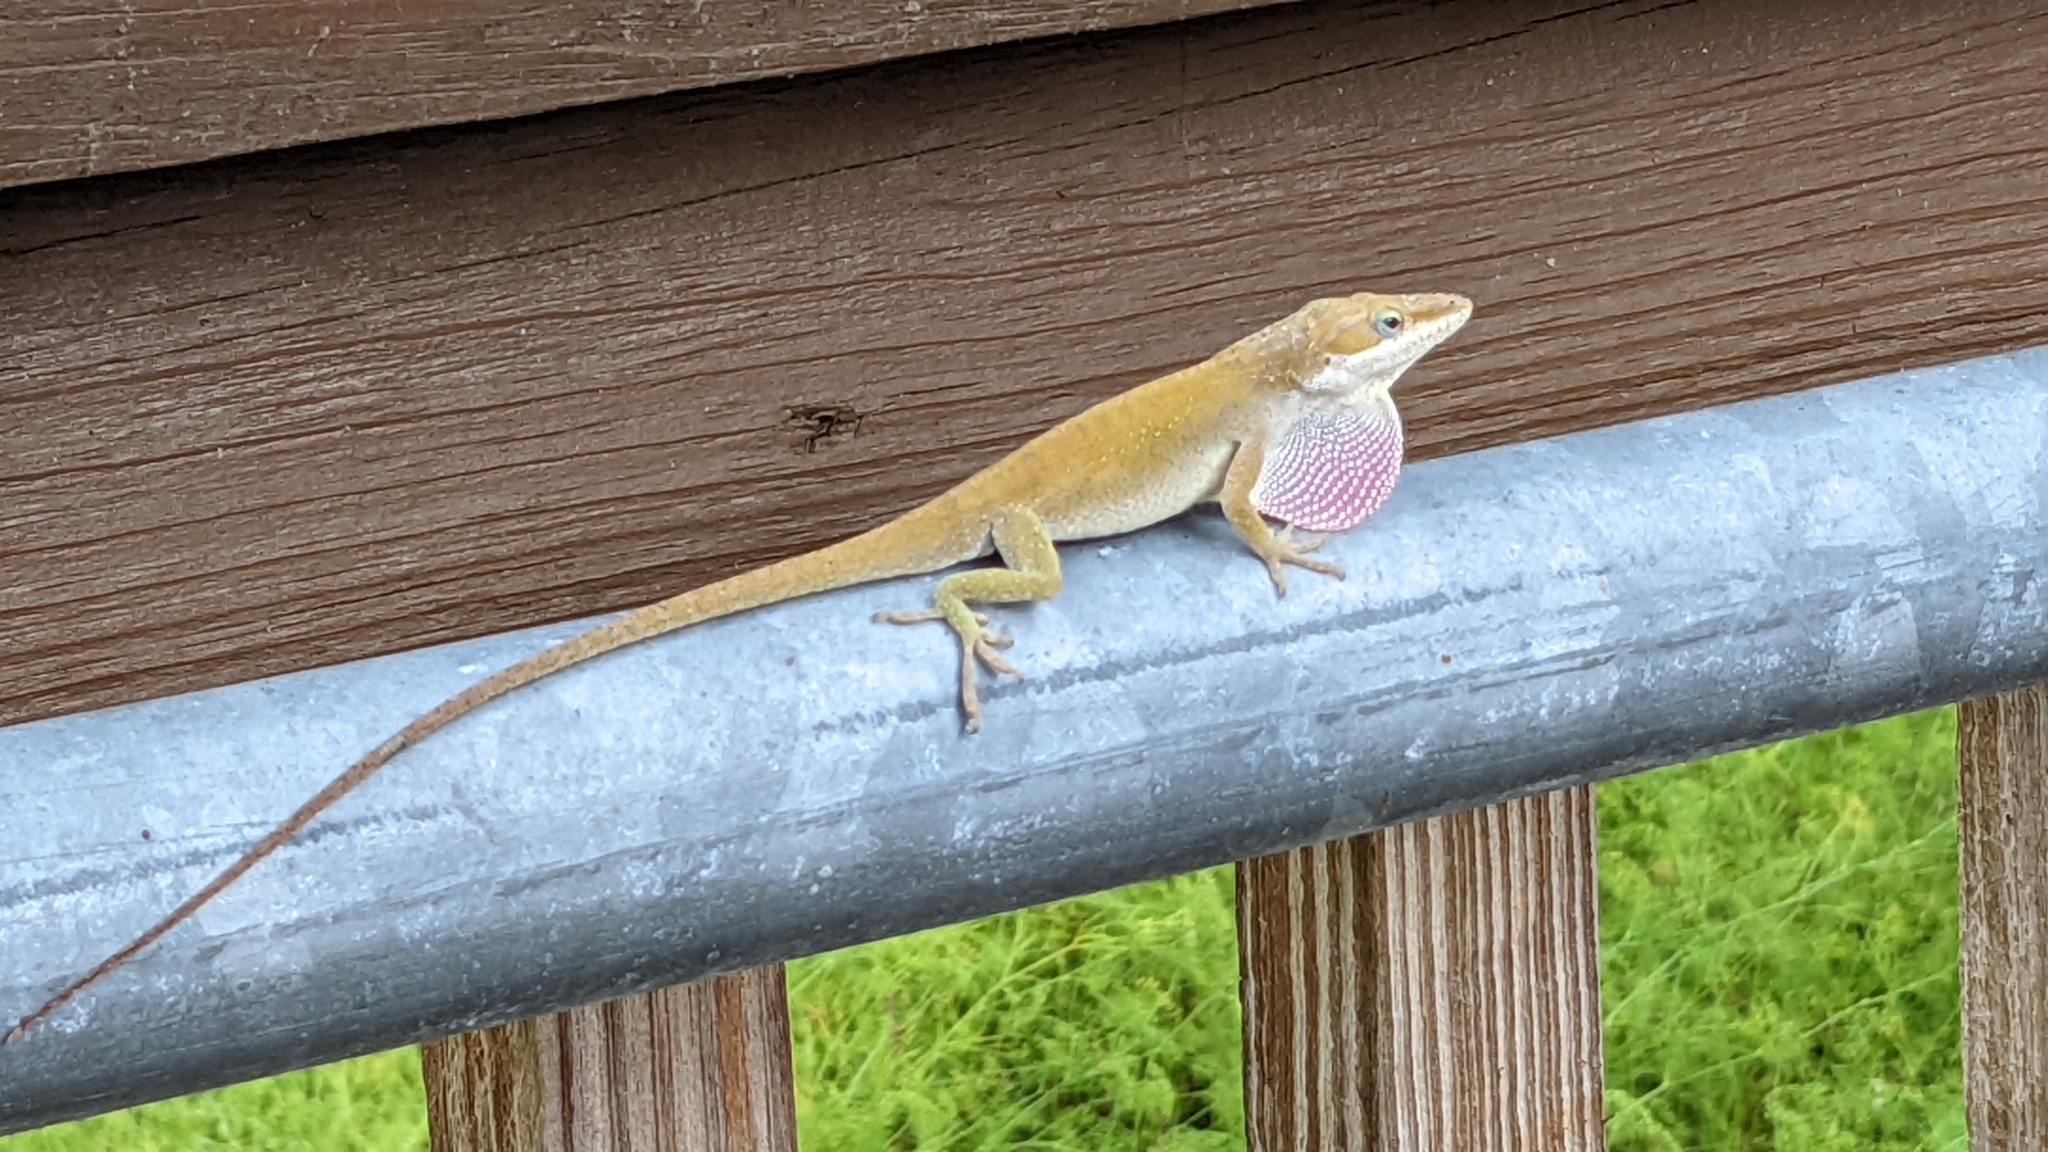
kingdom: Animalia
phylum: Chordata
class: Squamata
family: Dactyloidae
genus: Anolis
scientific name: Anolis carolinensis
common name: Green anole
